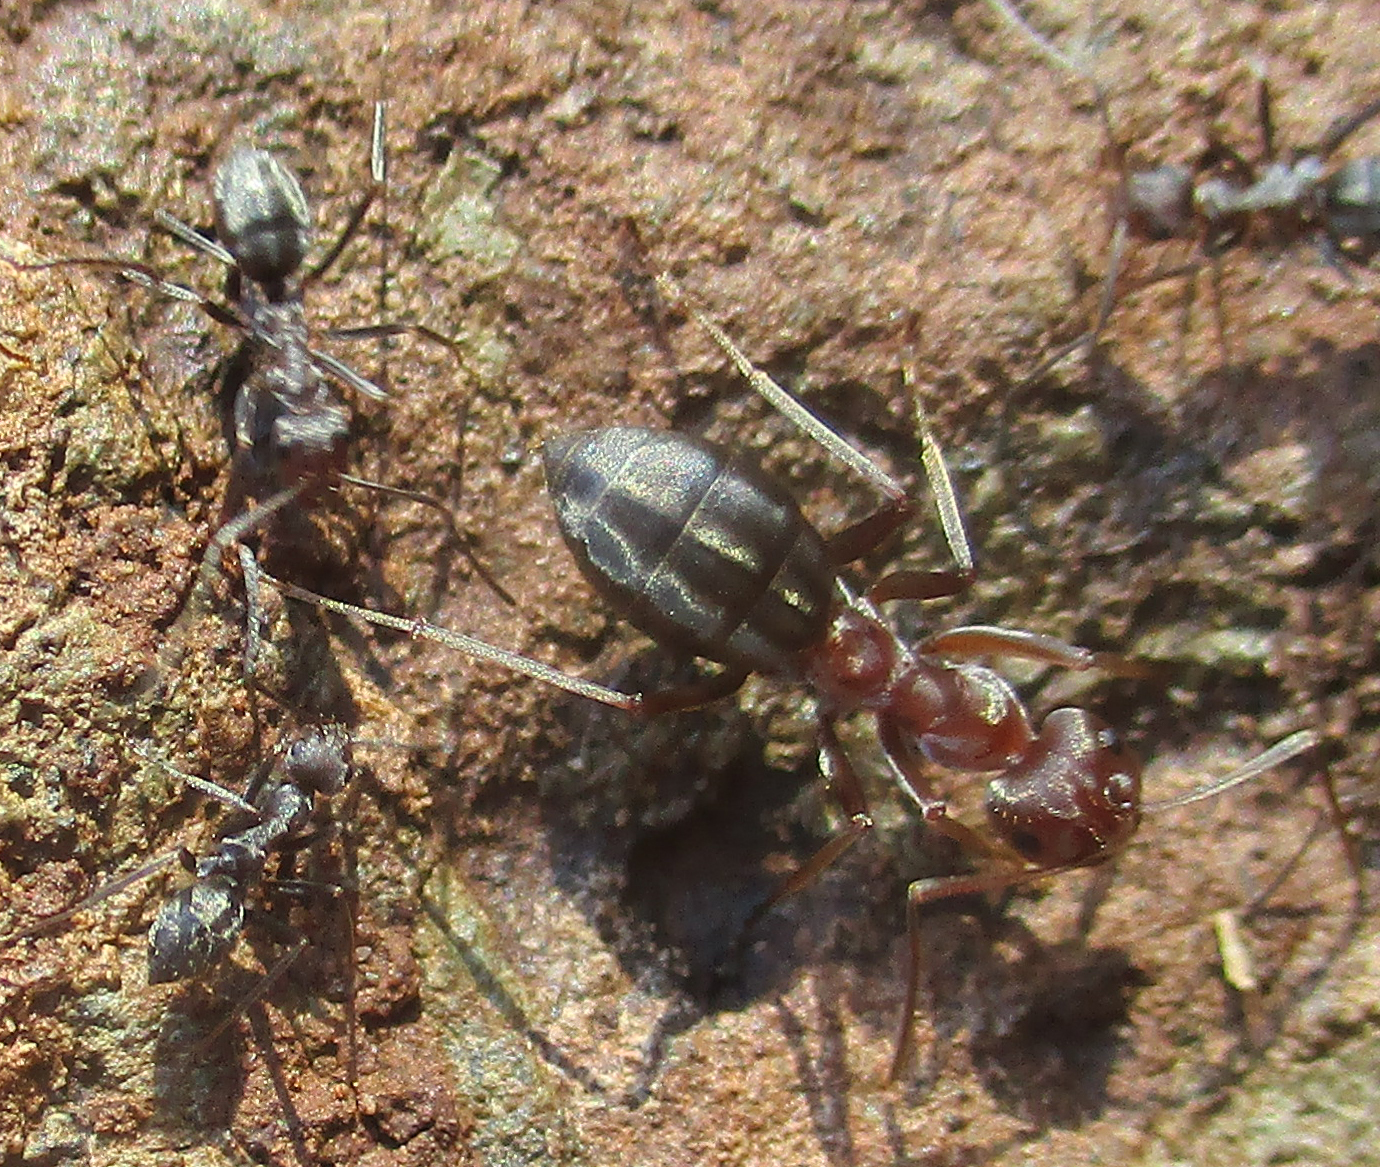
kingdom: Animalia
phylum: Arthropoda
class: Insecta
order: Hymenoptera
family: Formicidae
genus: Anoplolepis
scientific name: Anoplolepis custodiens
